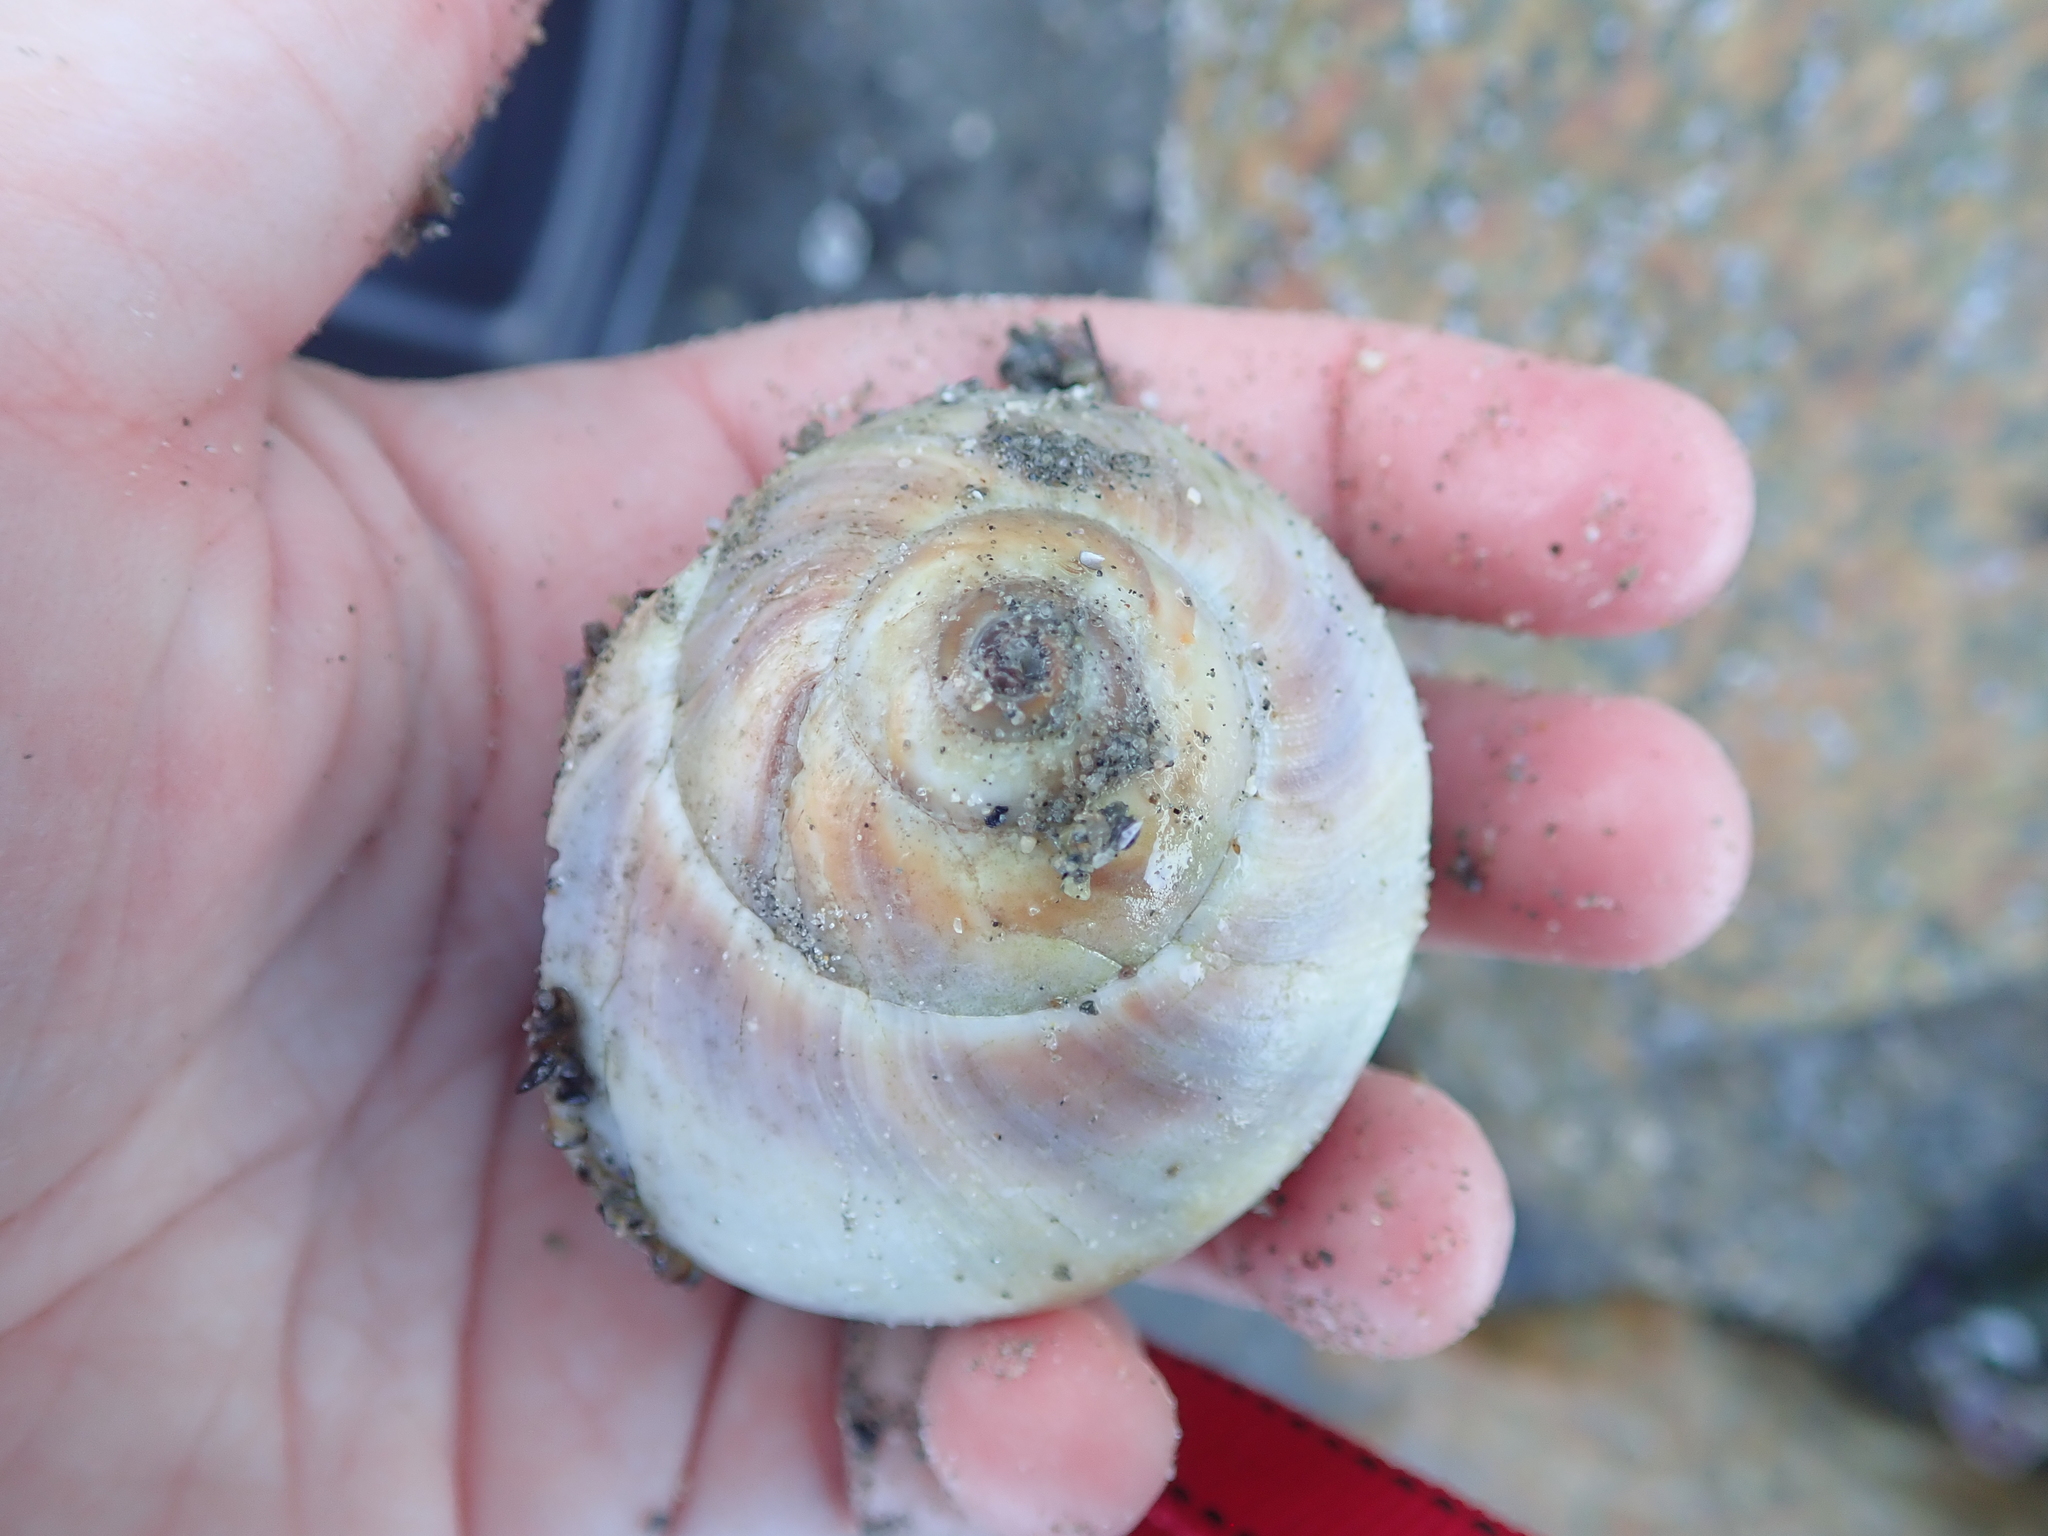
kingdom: Animalia
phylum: Mollusca
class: Gastropoda
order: Littorinimorpha
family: Naticidae
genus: Euspira
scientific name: Euspira heros
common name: Common northern moonsnail
